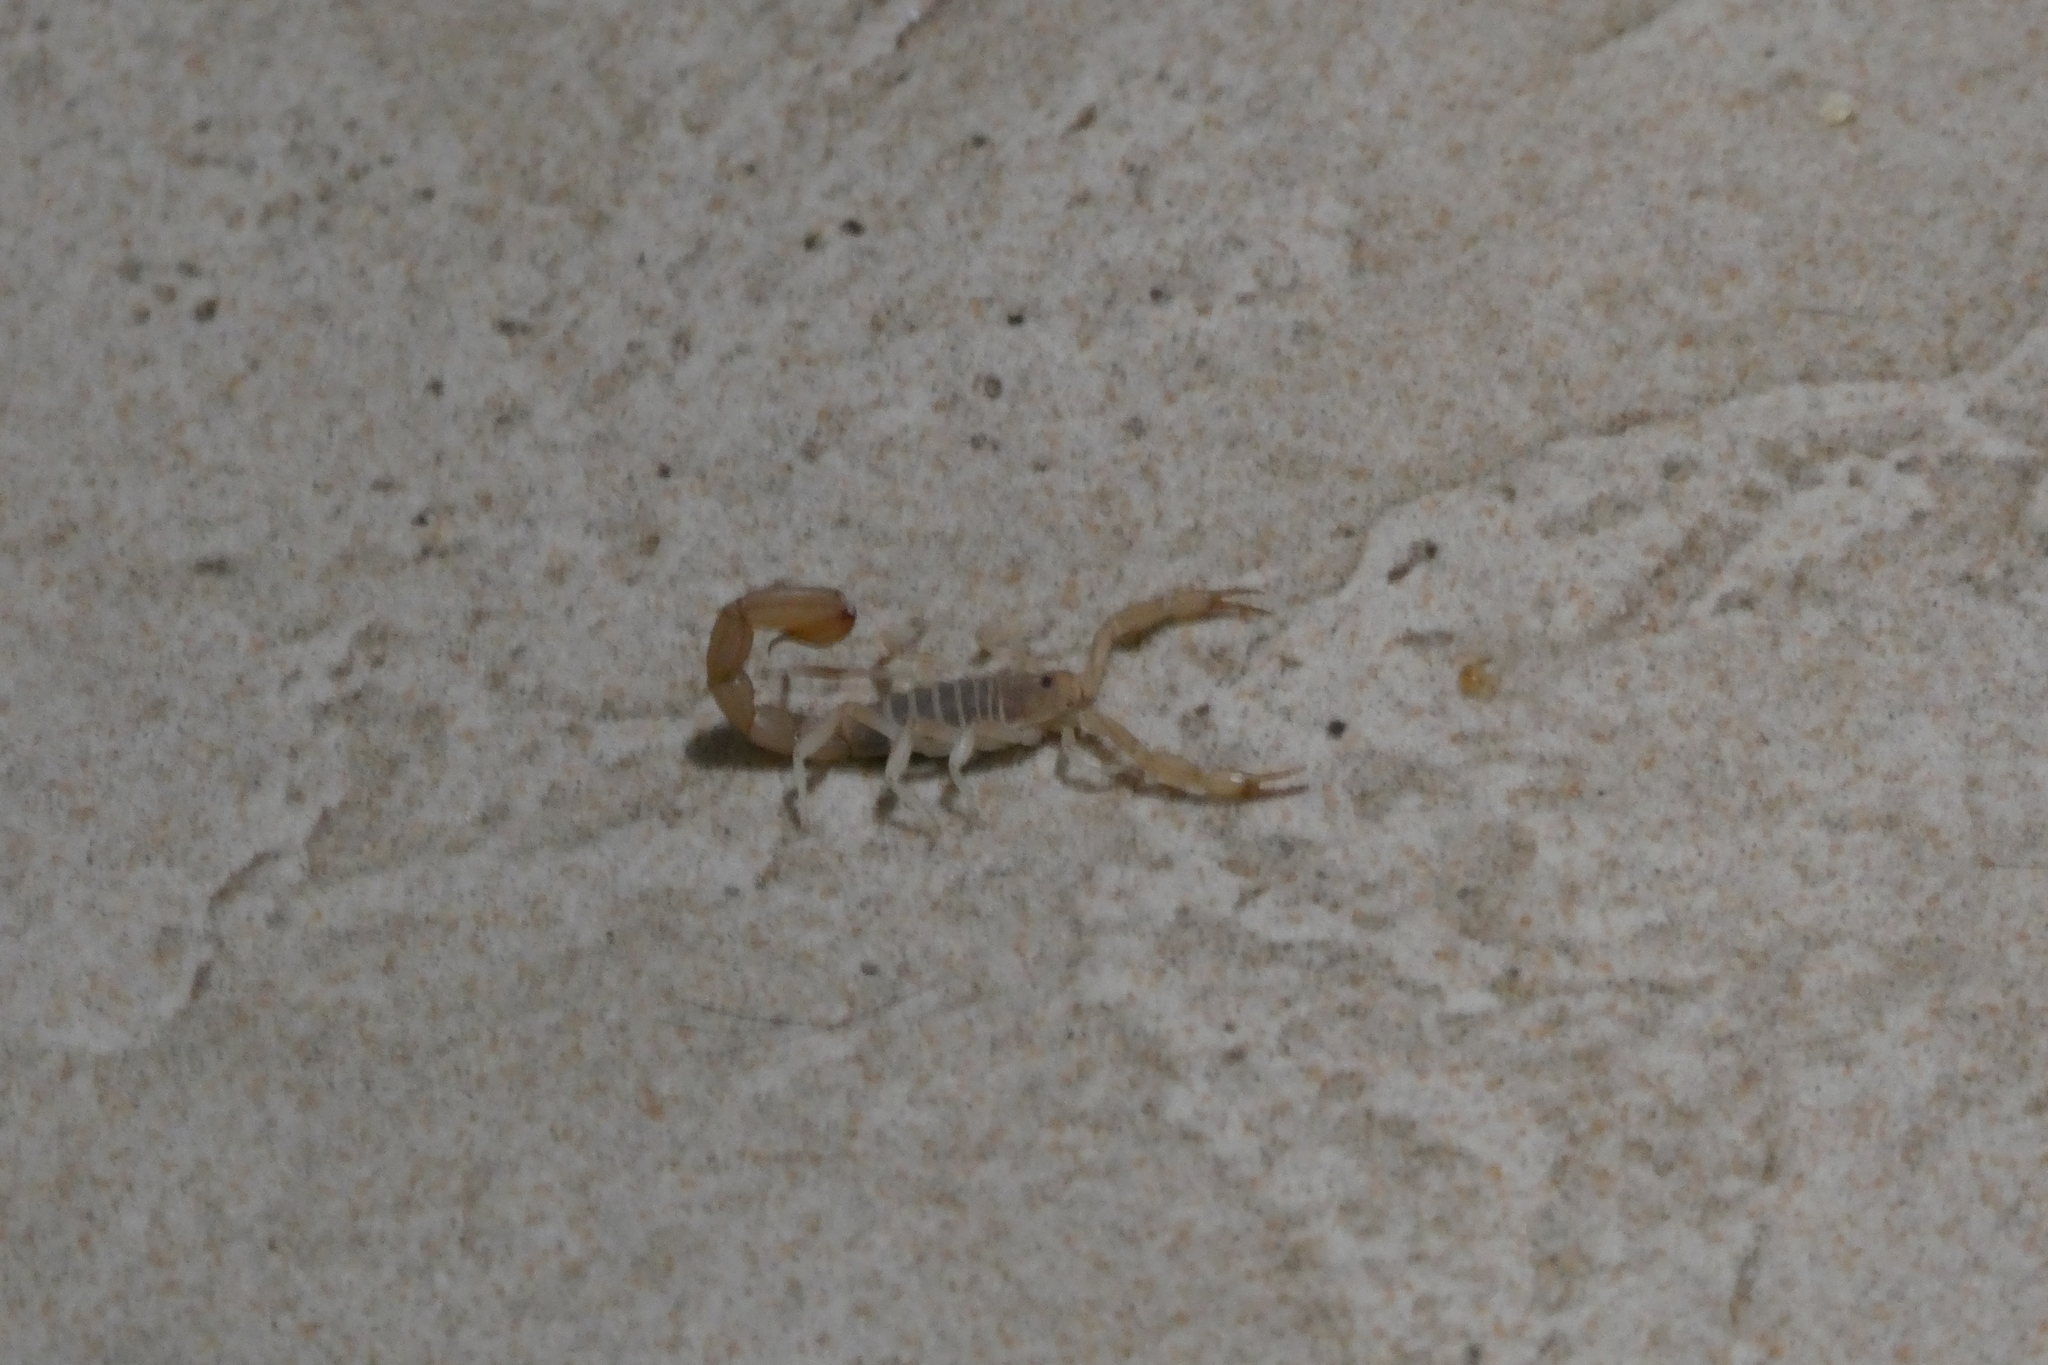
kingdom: Animalia
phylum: Arthropoda
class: Arachnida
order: Scorpiones
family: Vaejovidae
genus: Paravaejovis
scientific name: Paravaejovis confusus
